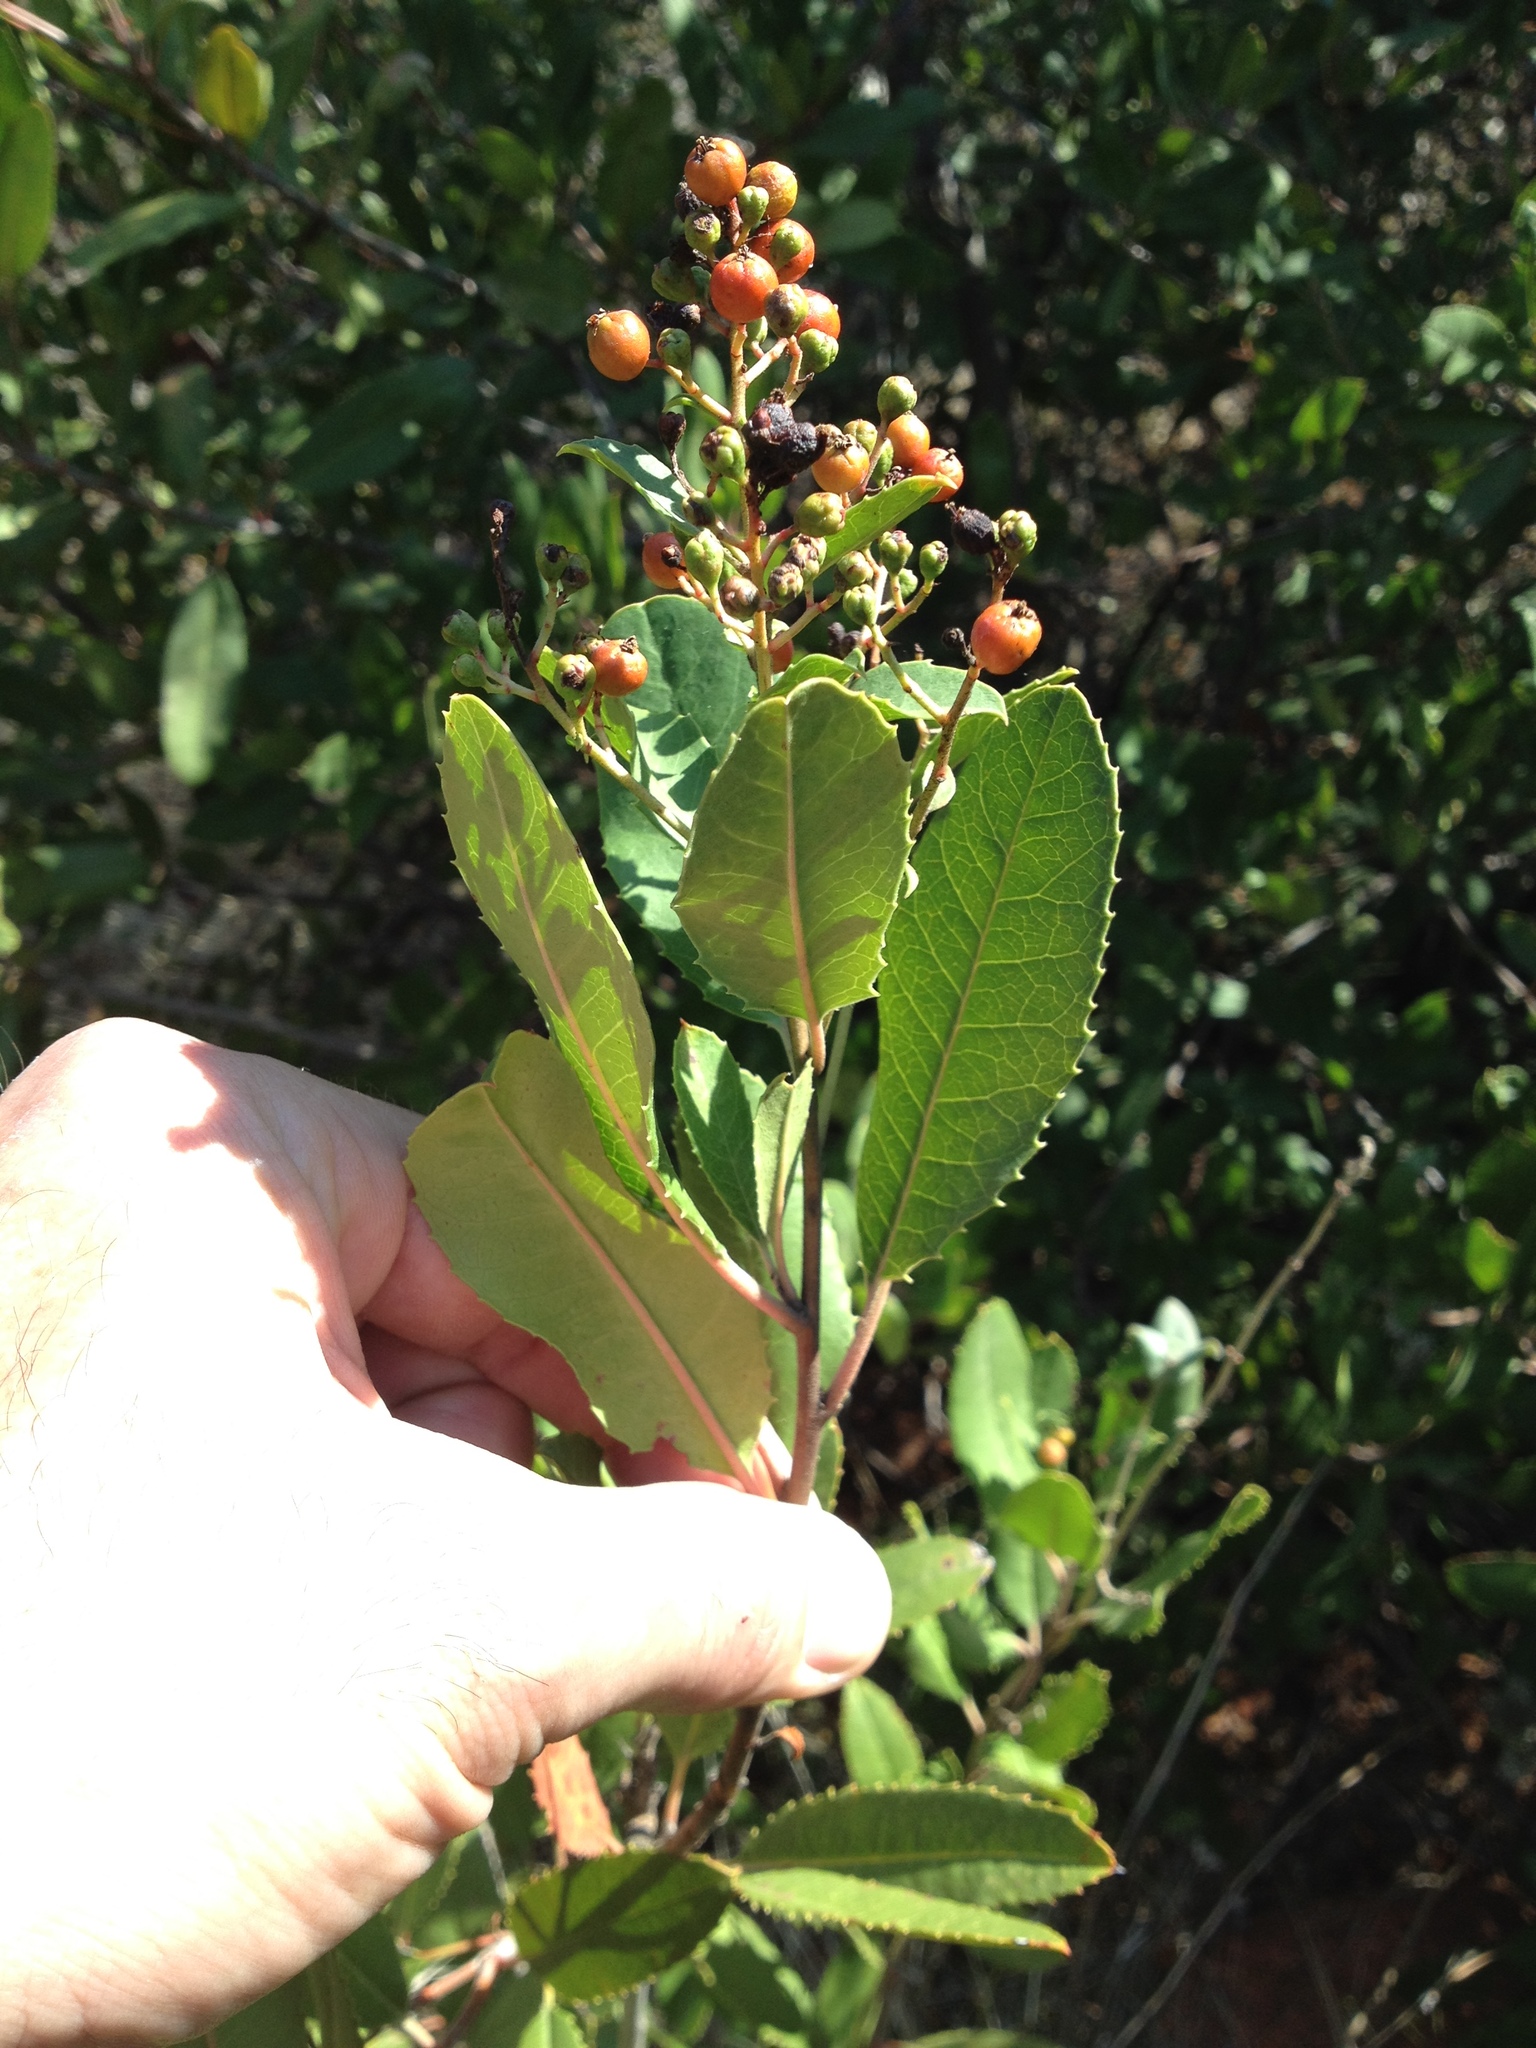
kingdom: Plantae
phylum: Tracheophyta
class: Magnoliopsida
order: Rosales
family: Rosaceae
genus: Heteromeles
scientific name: Heteromeles arbutifolia
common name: California-holly
